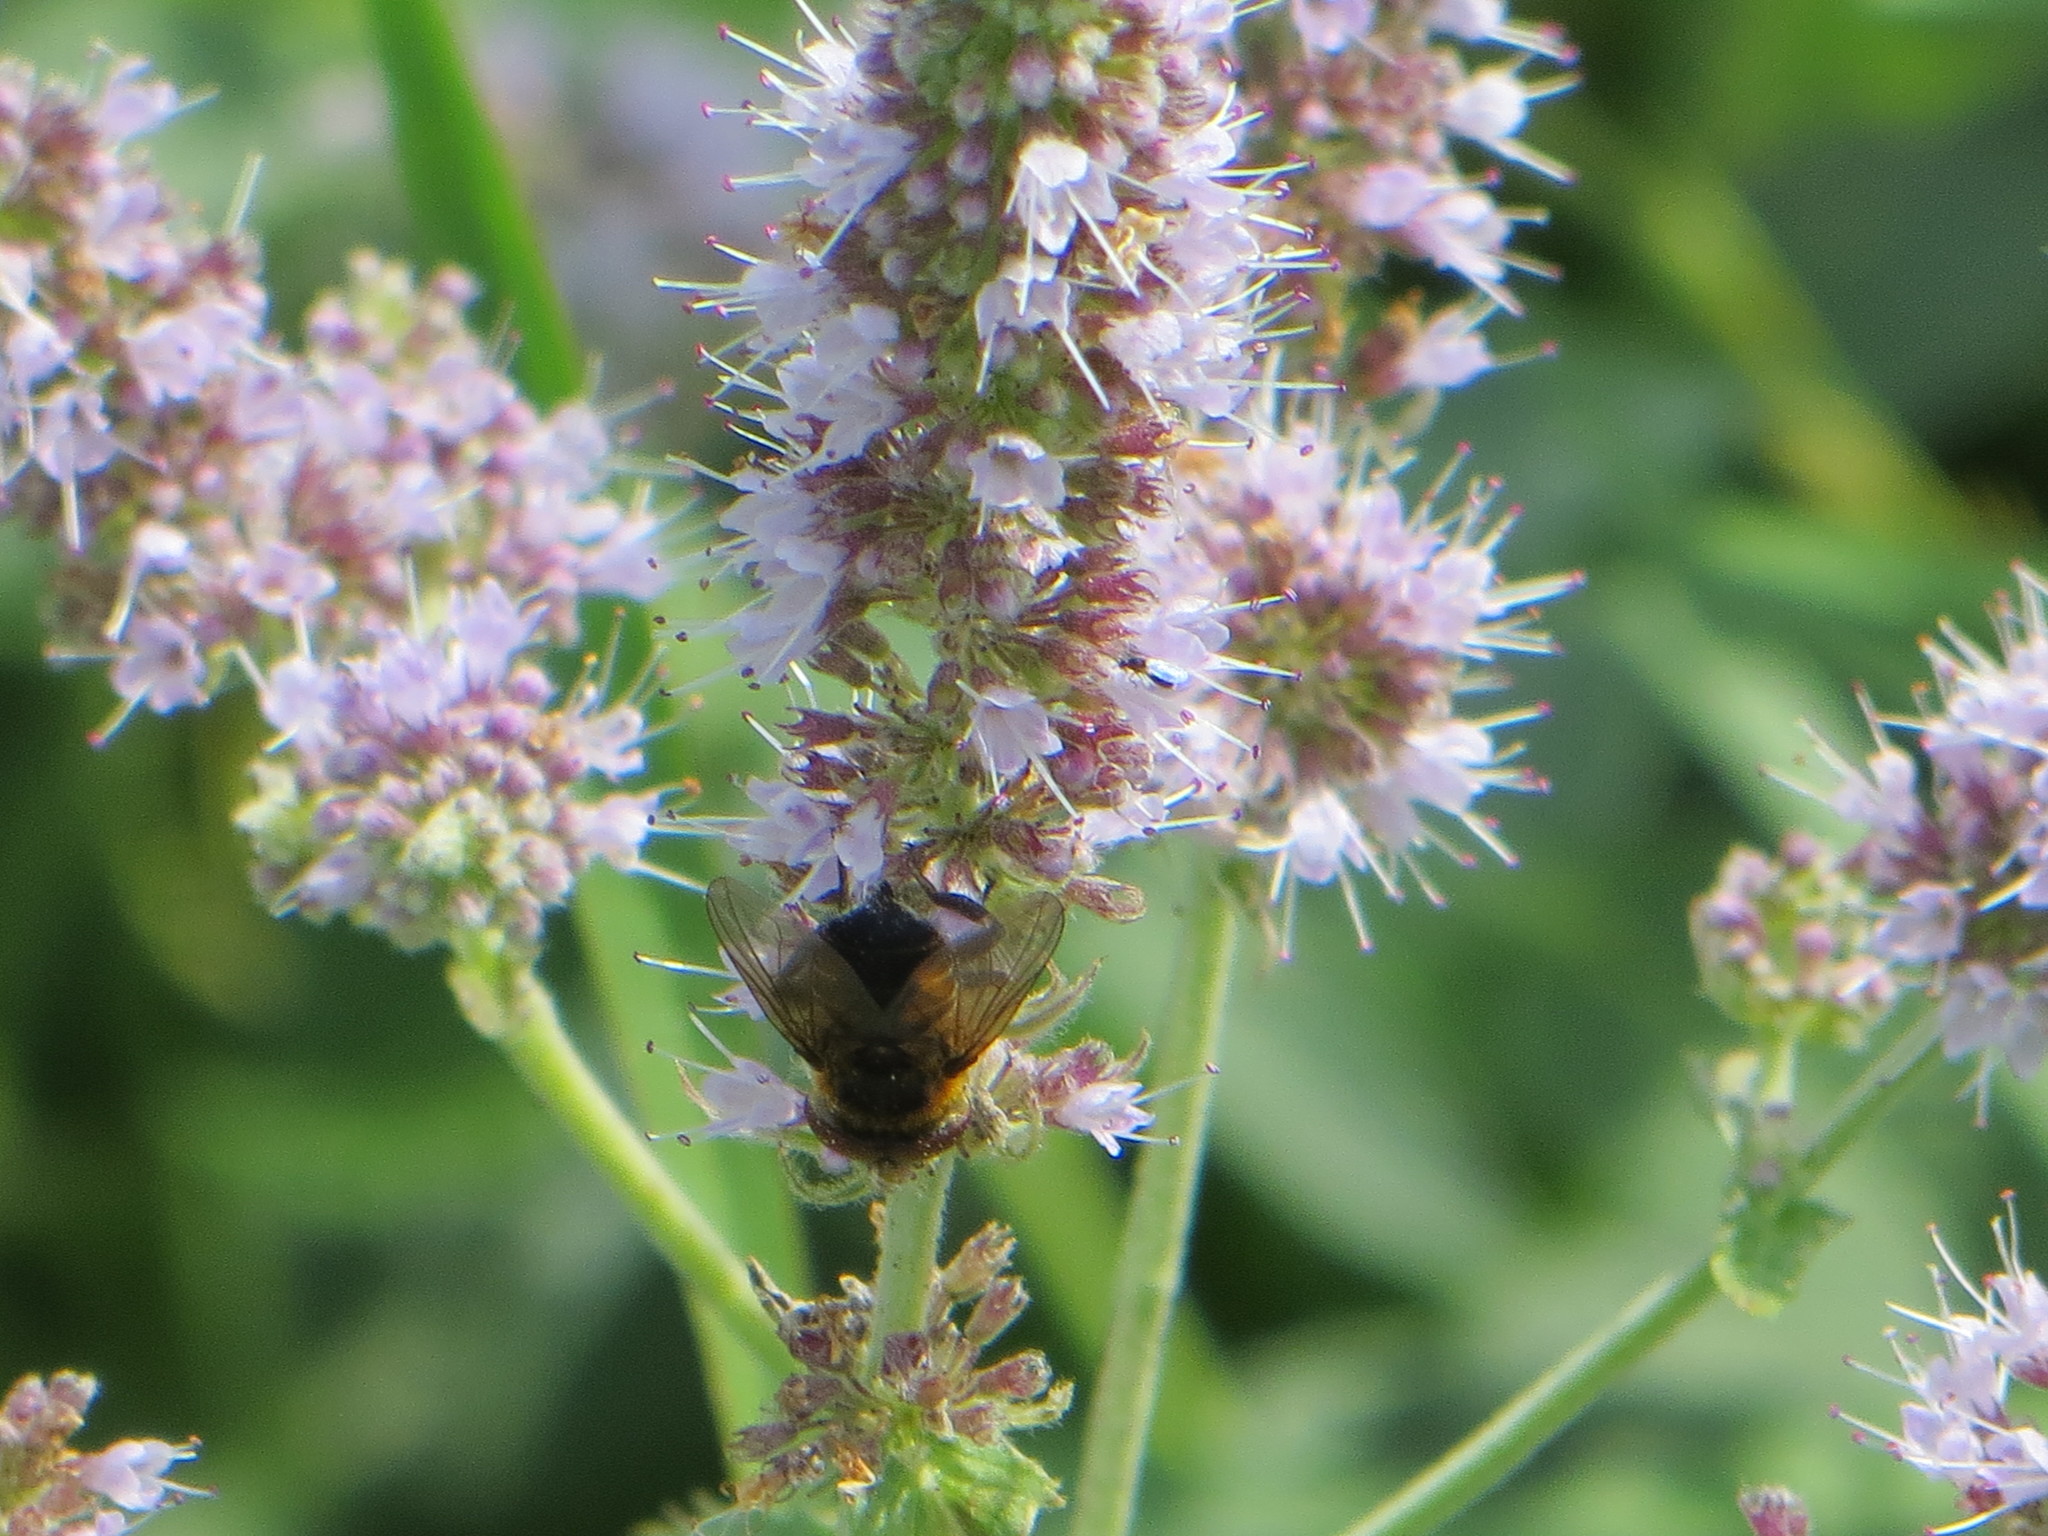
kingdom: Animalia
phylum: Arthropoda
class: Insecta
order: Diptera
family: Tachinidae
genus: Phasia
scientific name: Phasia hemiptera
